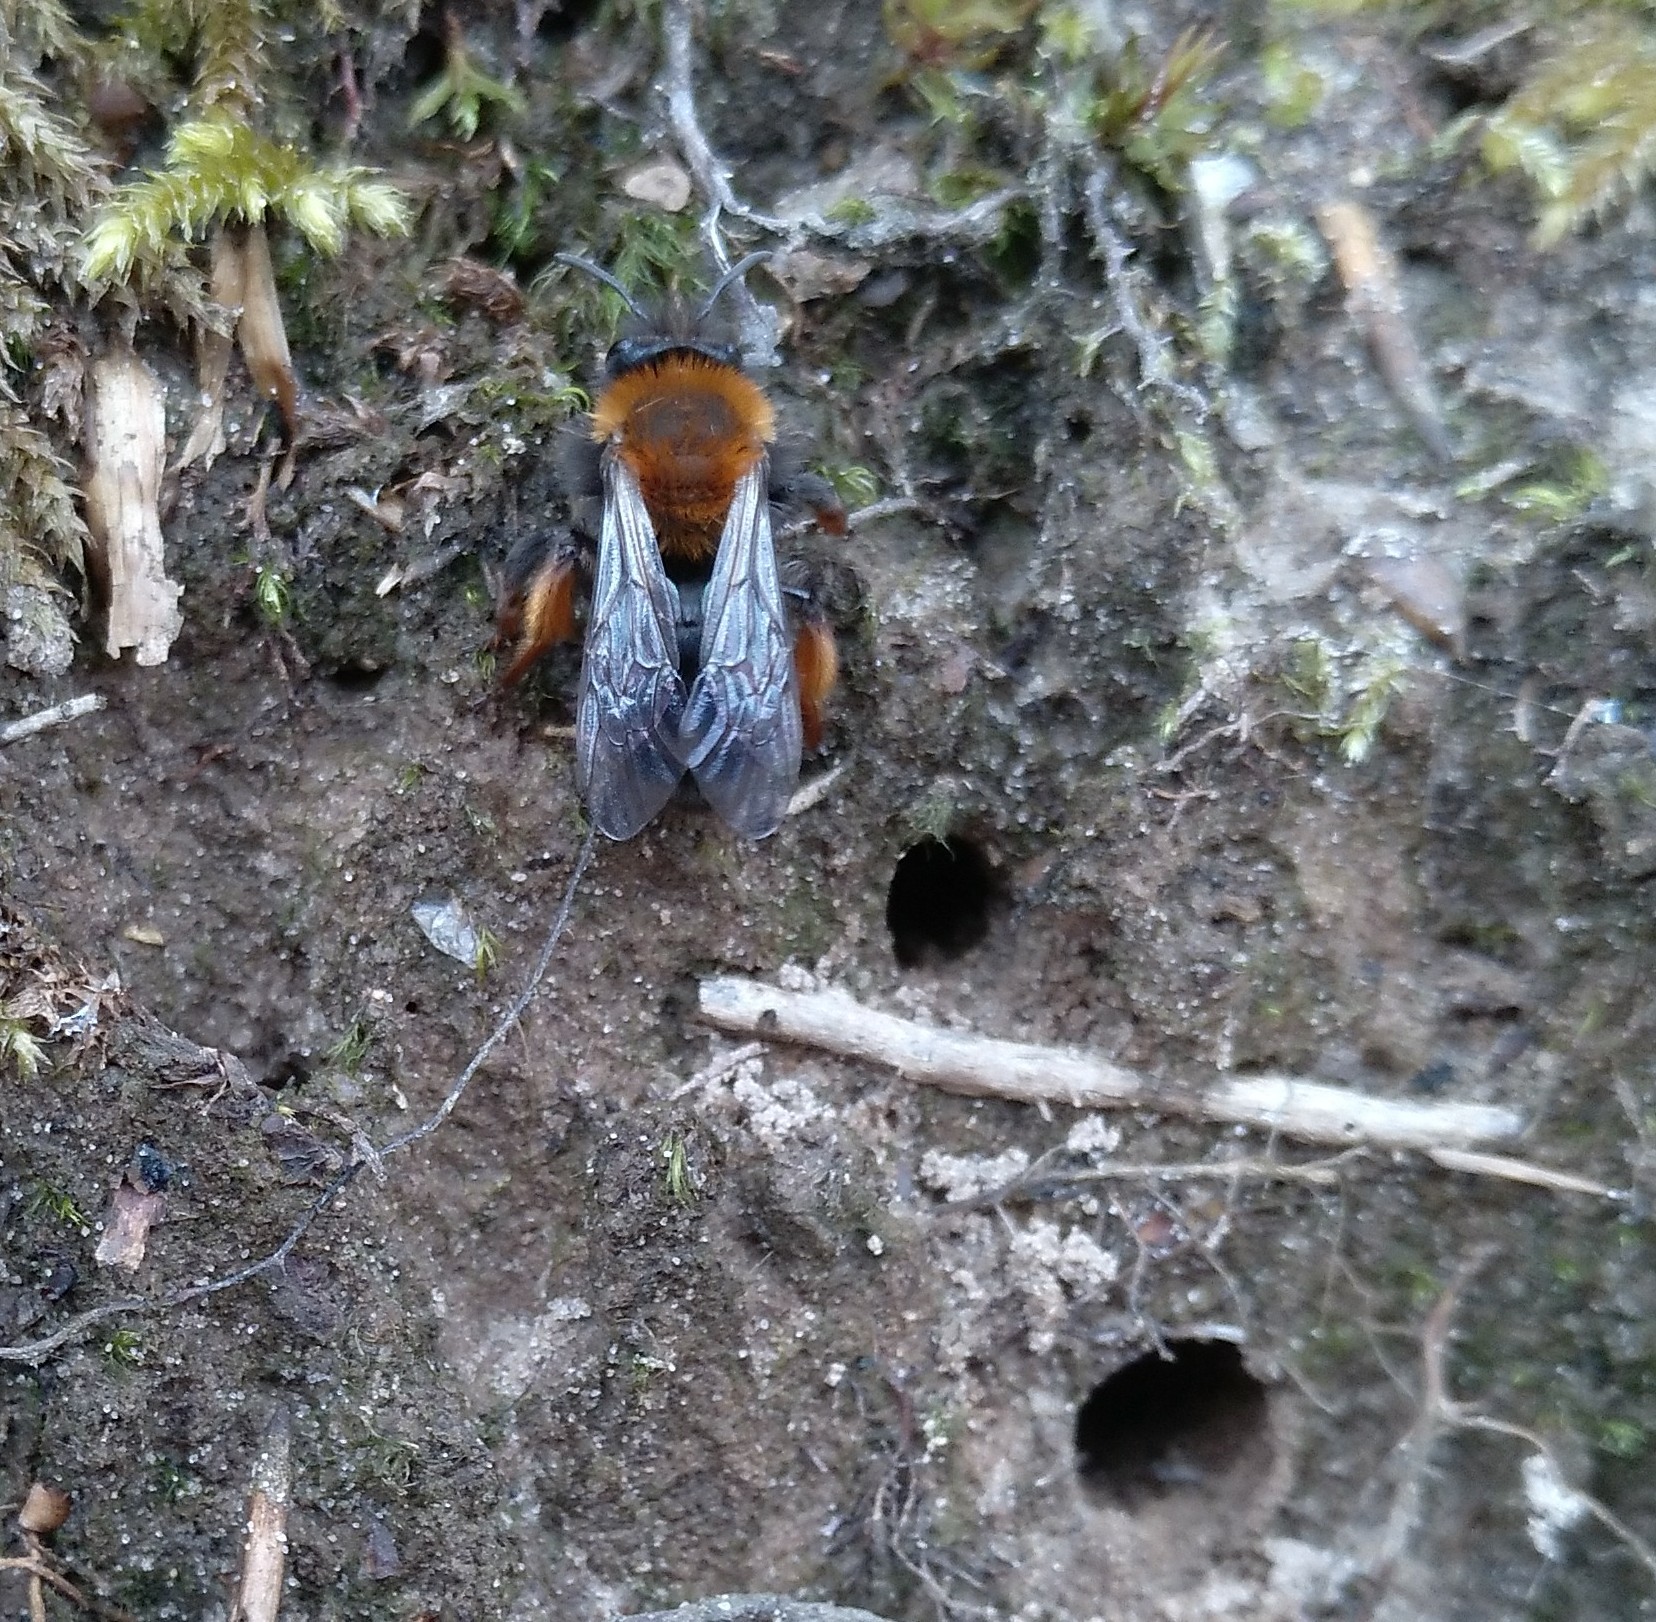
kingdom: Animalia
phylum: Arthropoda
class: Insecta
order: Hymenoptera
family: Andrenidae
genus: Andrena
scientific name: Andrena clarkella
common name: Clarke's mining bee
